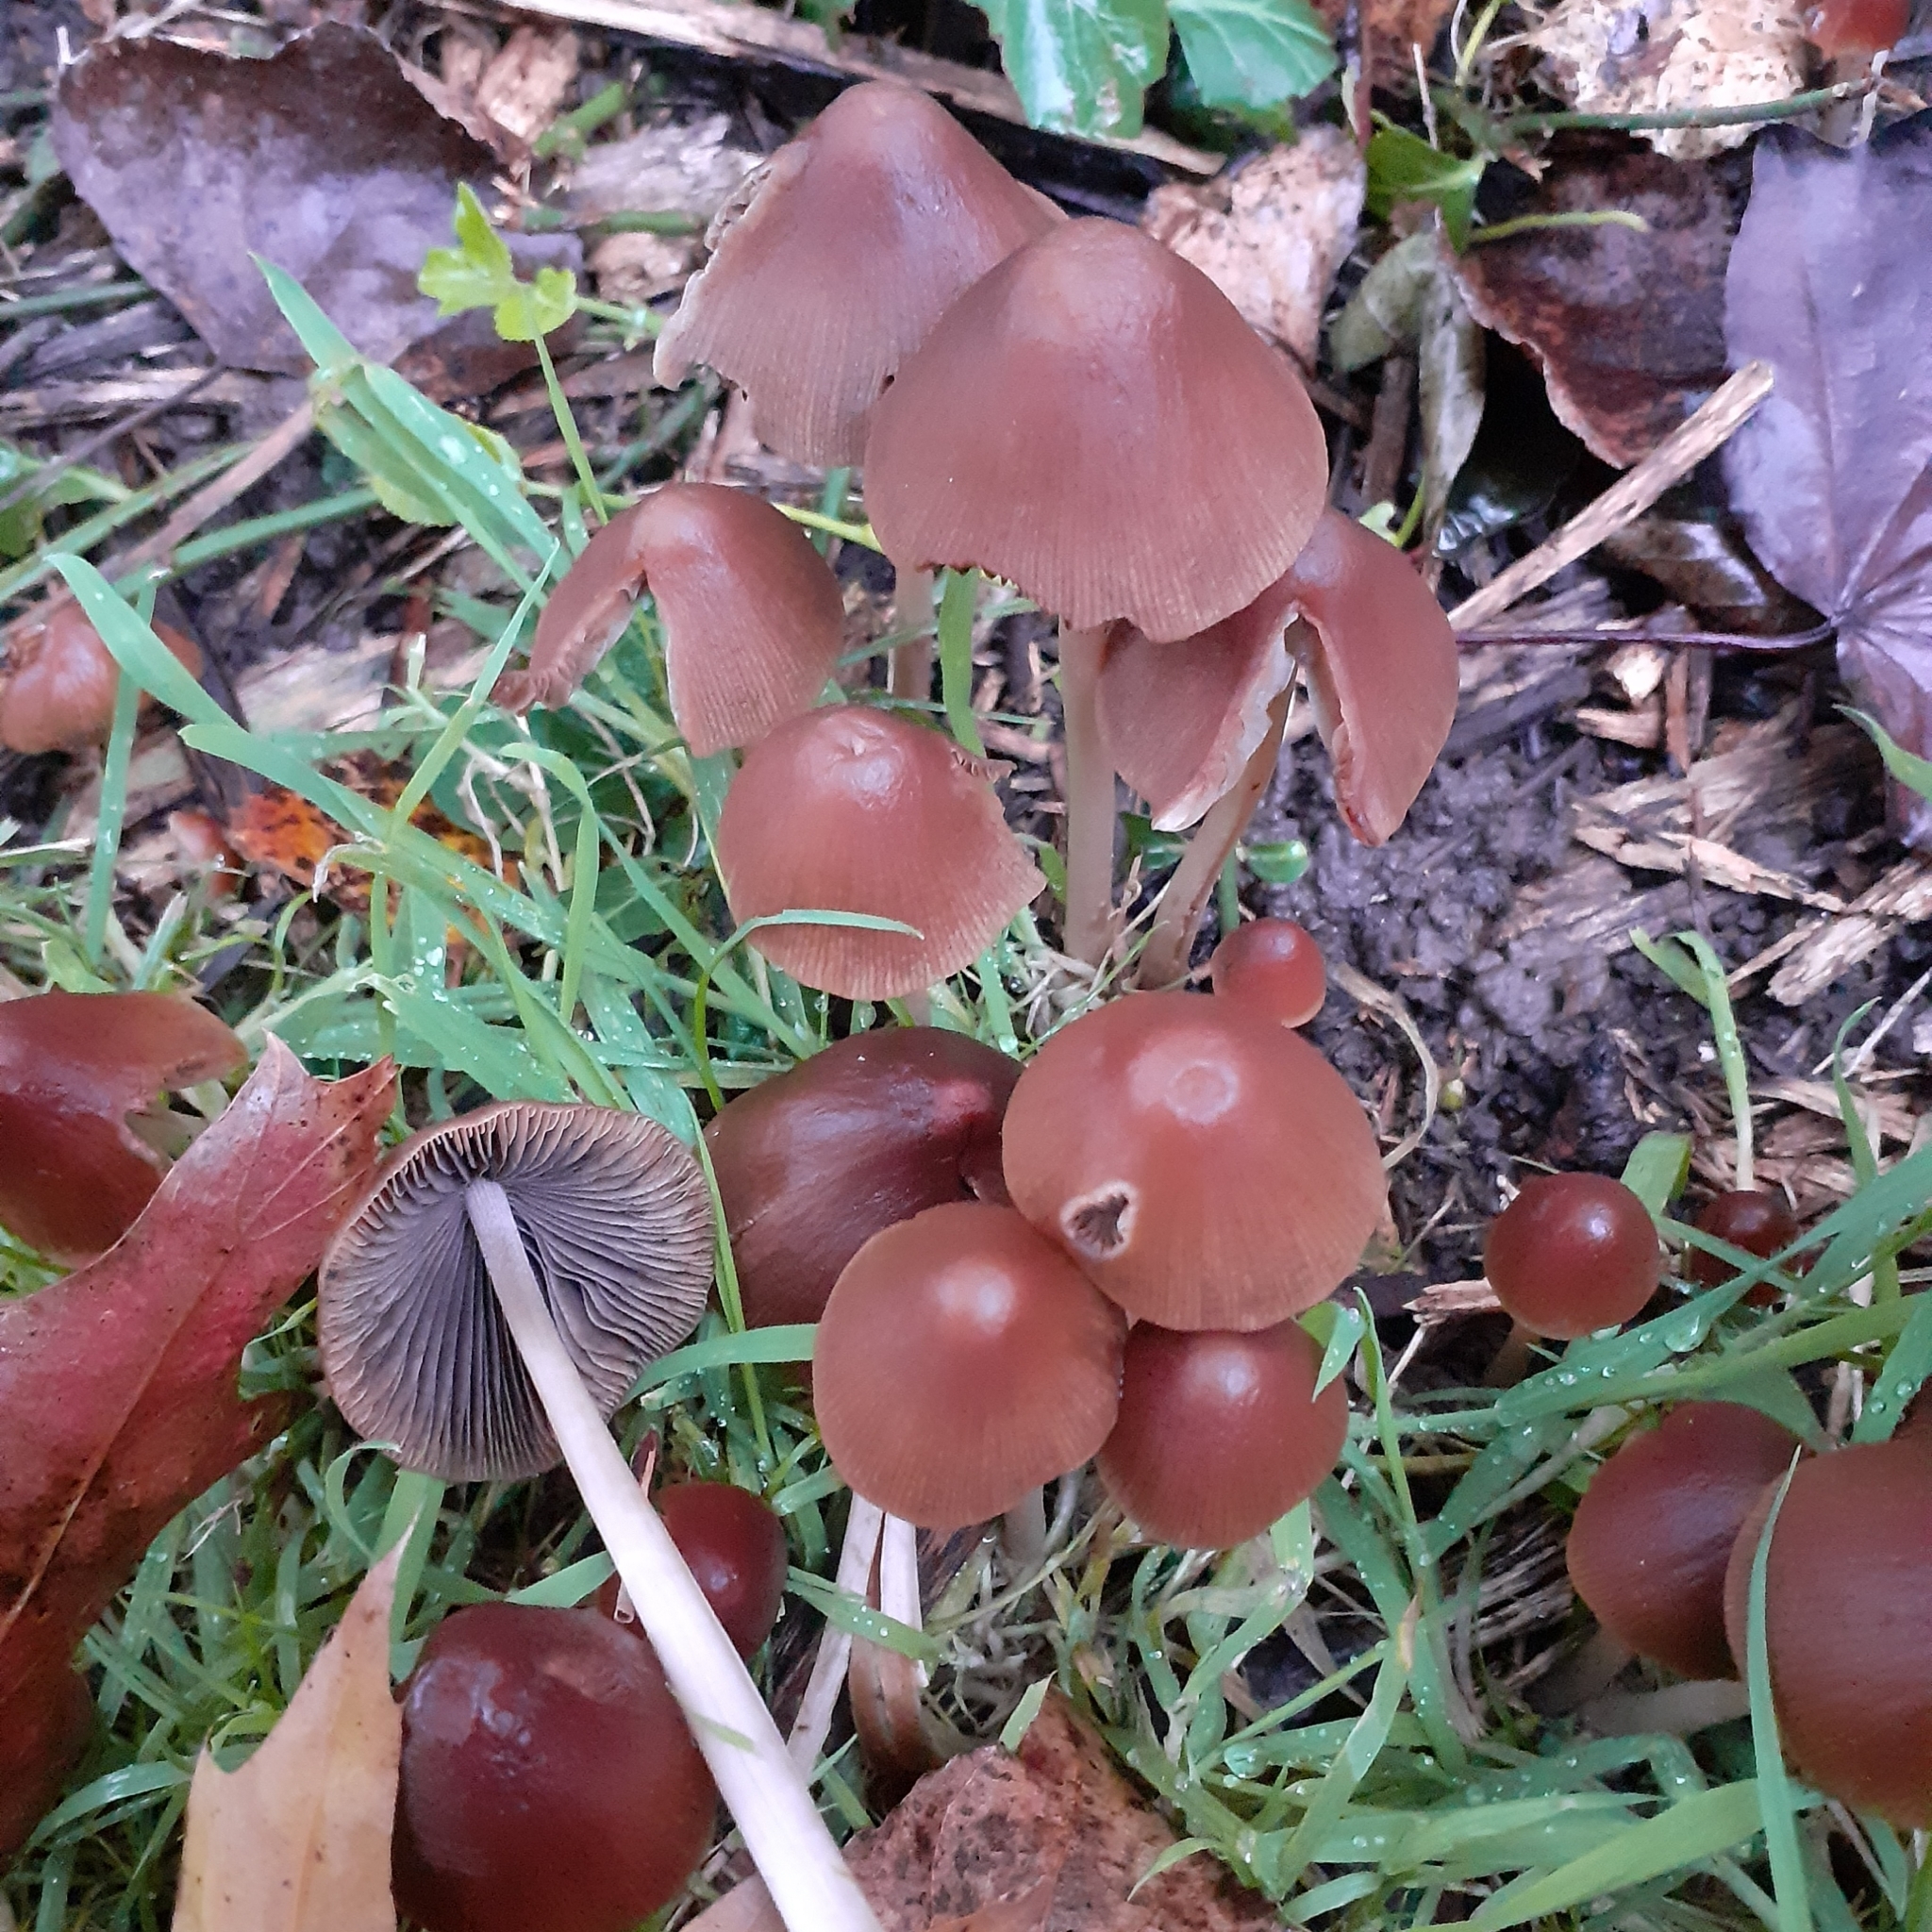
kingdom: Fungi
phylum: Basidiomycota
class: Agaricomycetes
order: Agaricales
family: Psathyrellaceae
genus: Parasola
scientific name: Parasola conopilea
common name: Conical brittlestem
